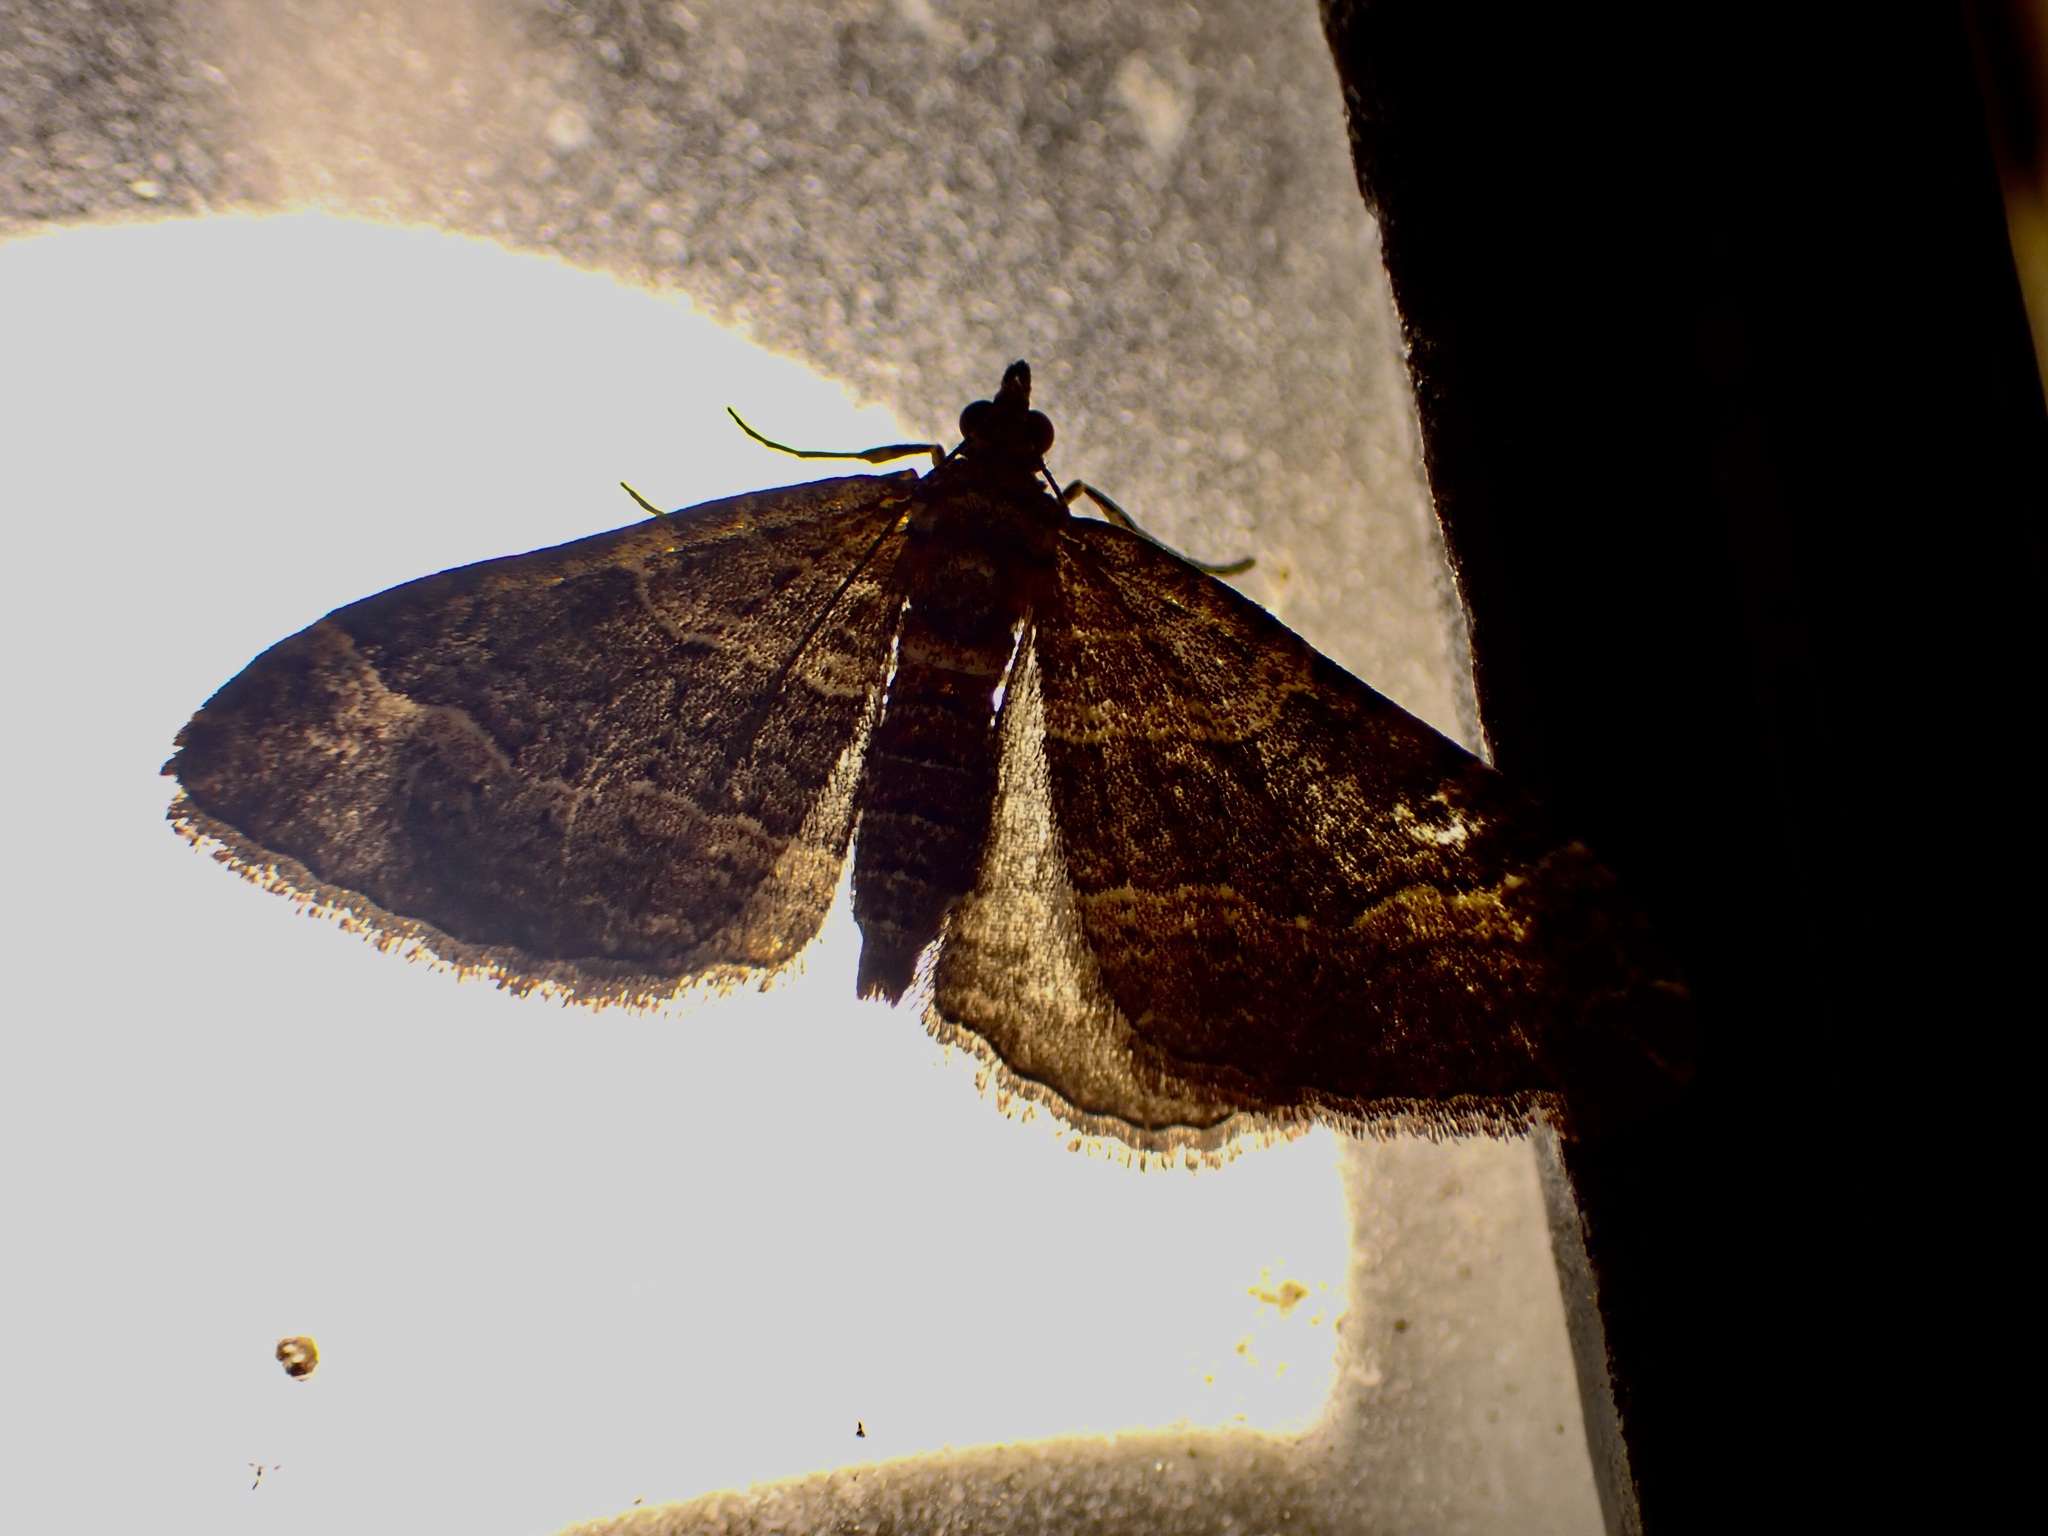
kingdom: Animalia
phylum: Arthropoda
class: Insecta
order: Lepidoptera
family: Geometridae
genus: Epyaxa
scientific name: Epyaxa lucidata
